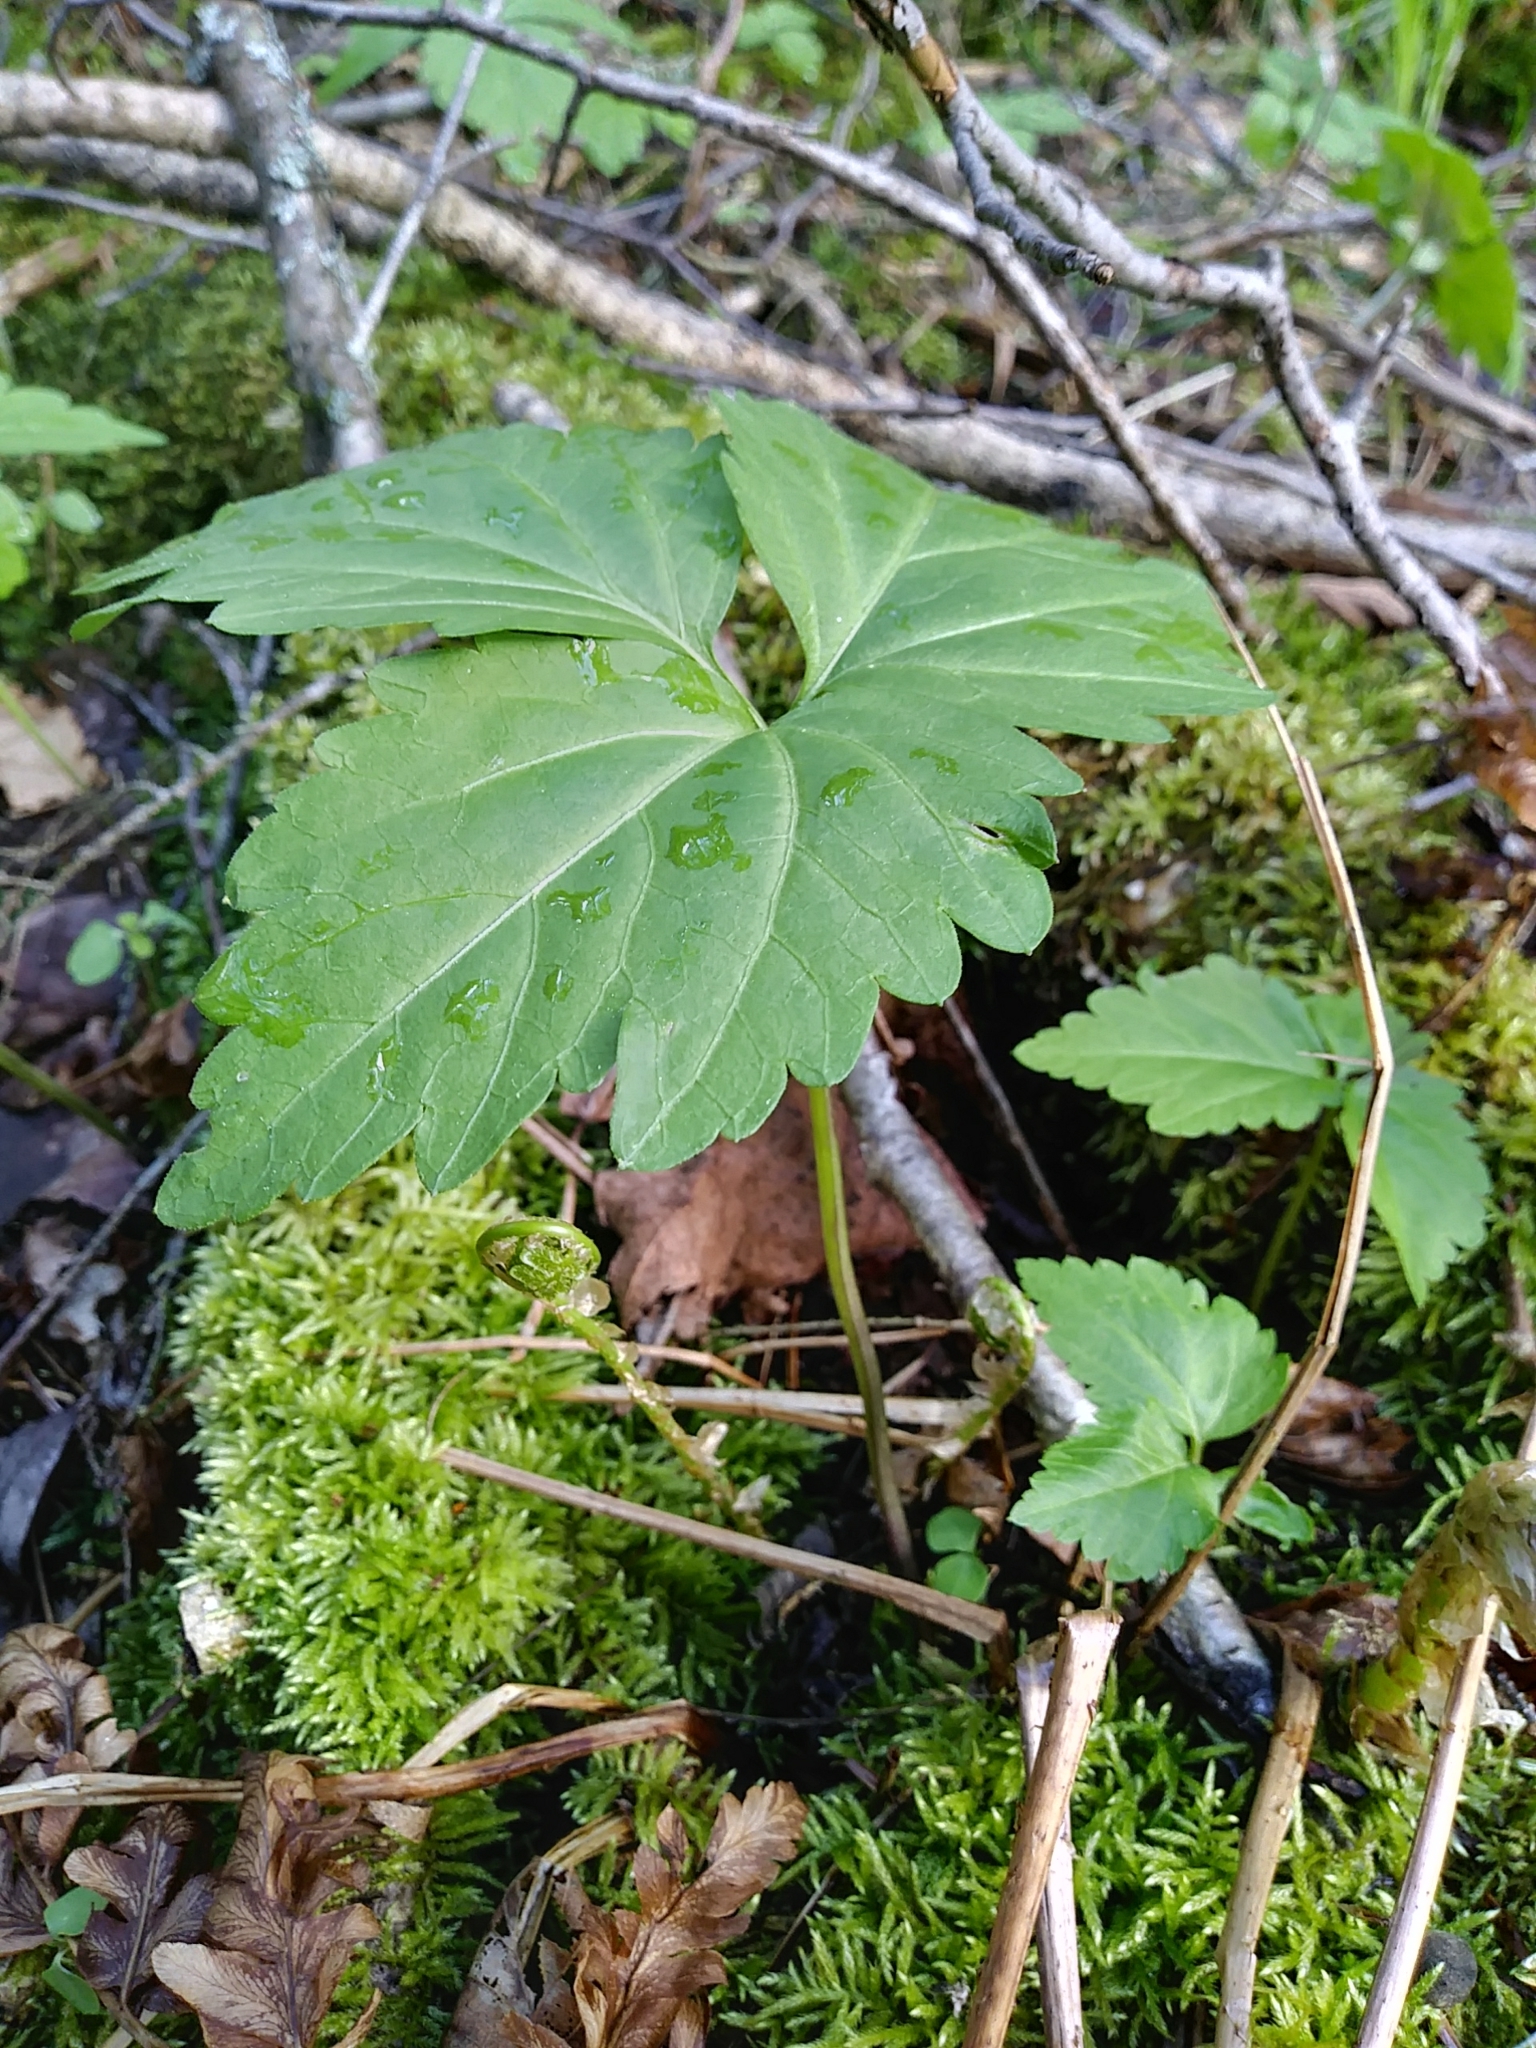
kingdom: Plantae
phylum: Tracheophyta
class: Magnoliopsida
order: Brassicales
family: Brassicaceae
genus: Cardamine
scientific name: Cardamine diphylla
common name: Broad-leaved toothwort
